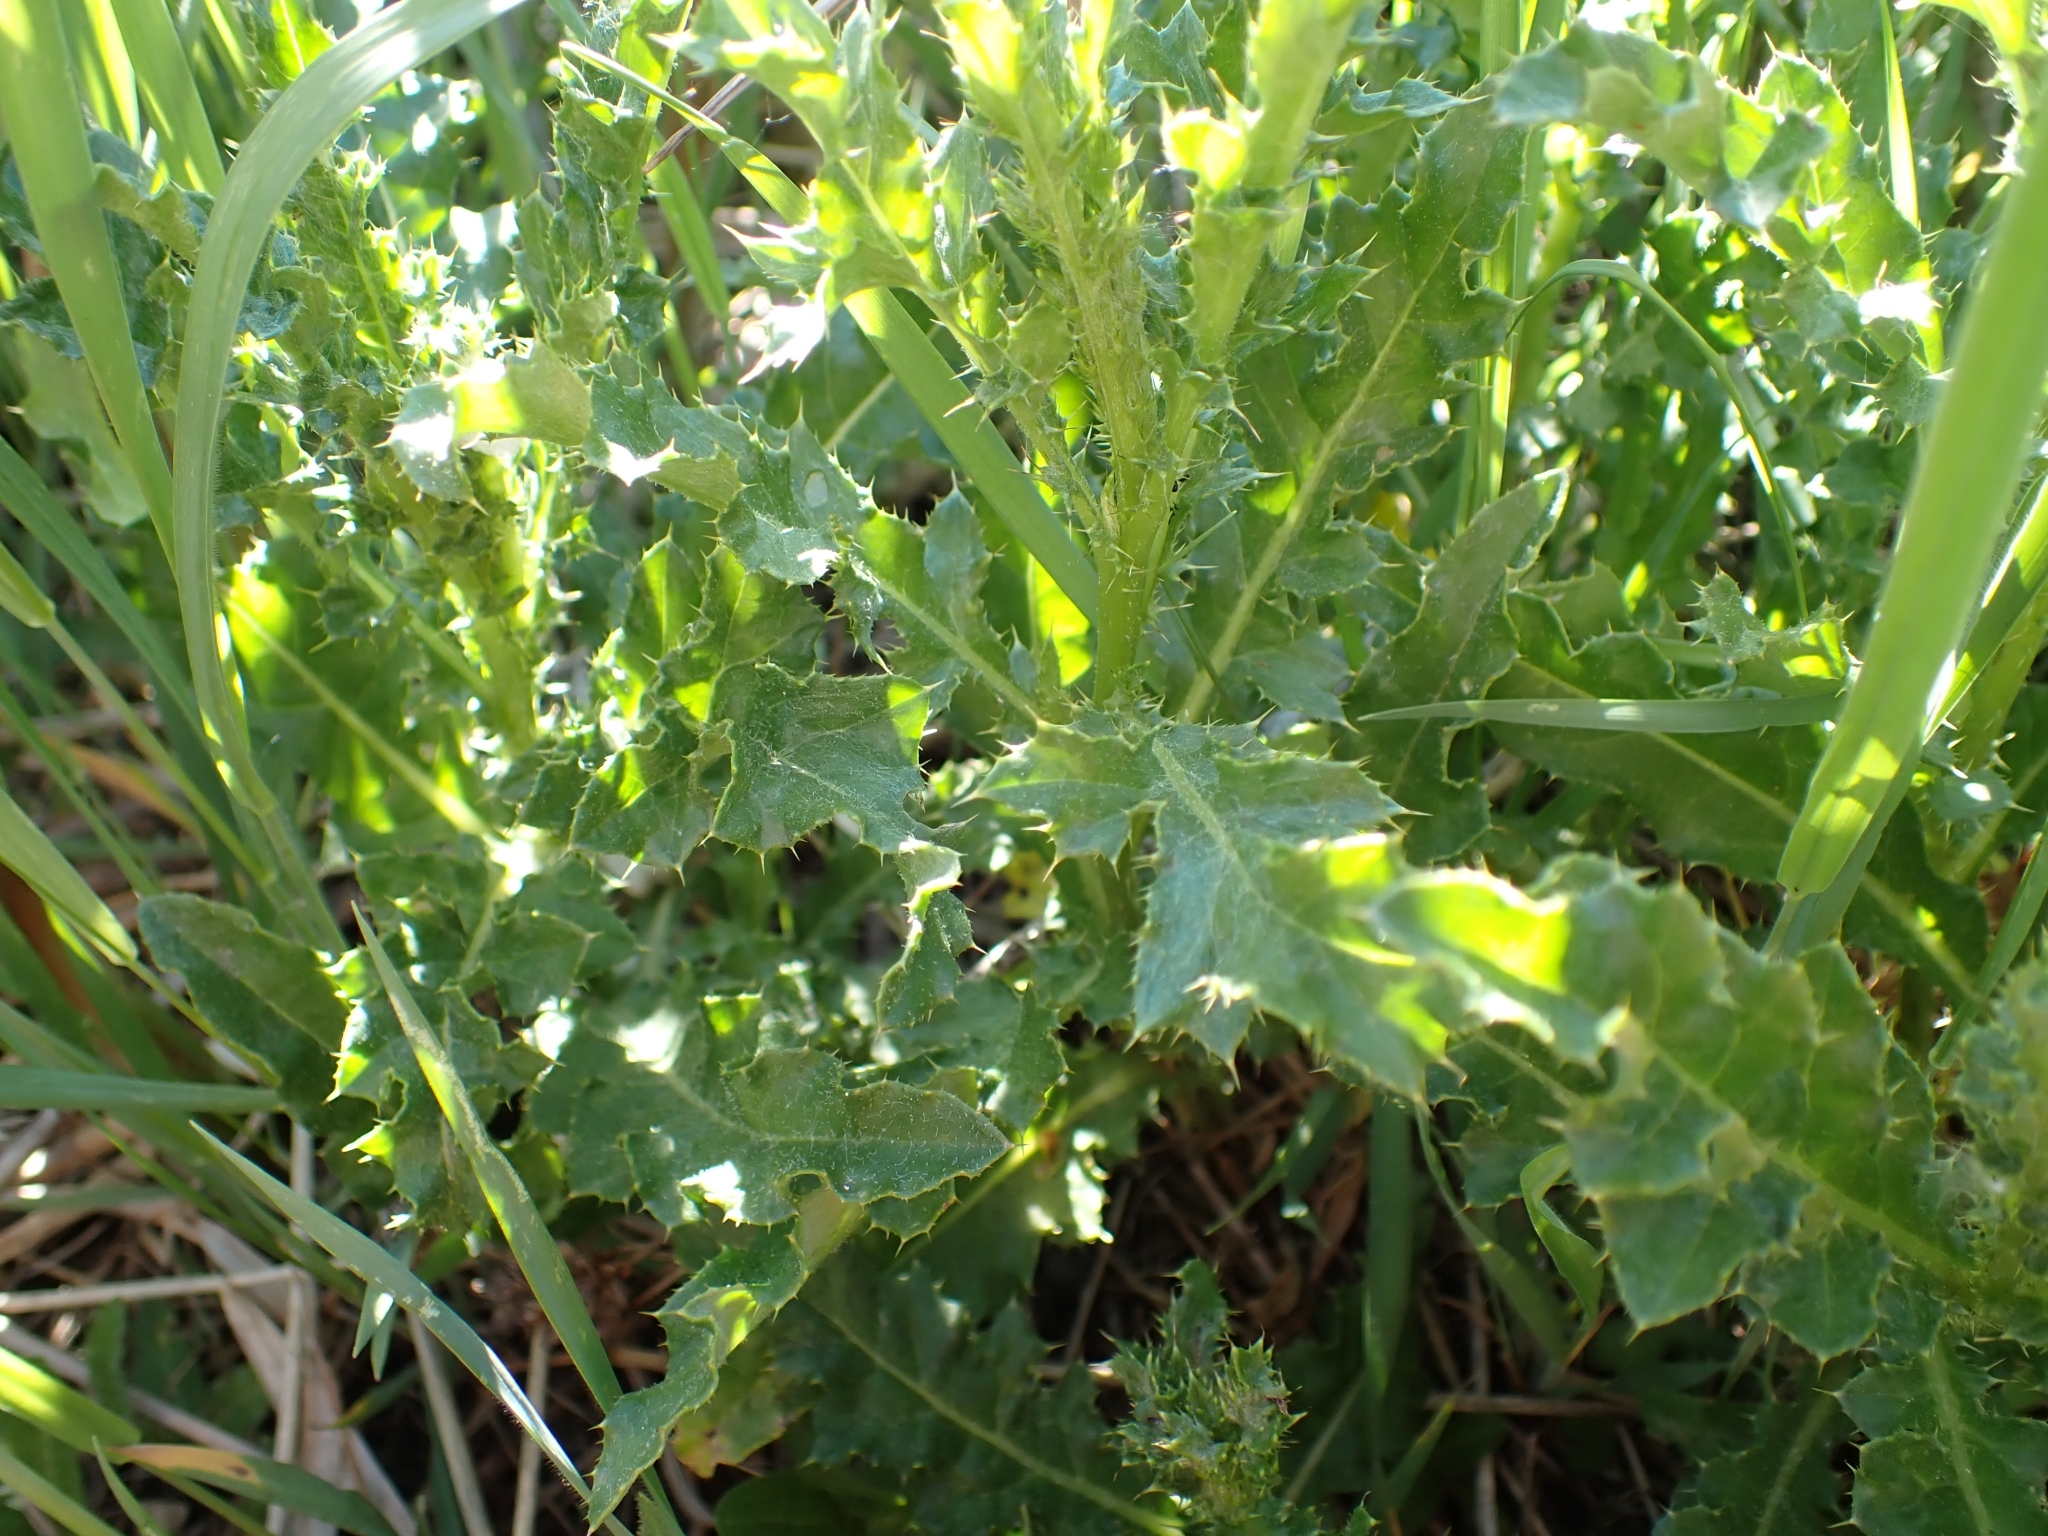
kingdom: Plantae
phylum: Tracheophyta
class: Magnoliopsida
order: Asterales
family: Asteraceae
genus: Cirsium
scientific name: Cirsium arvense
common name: Creeping thistle
